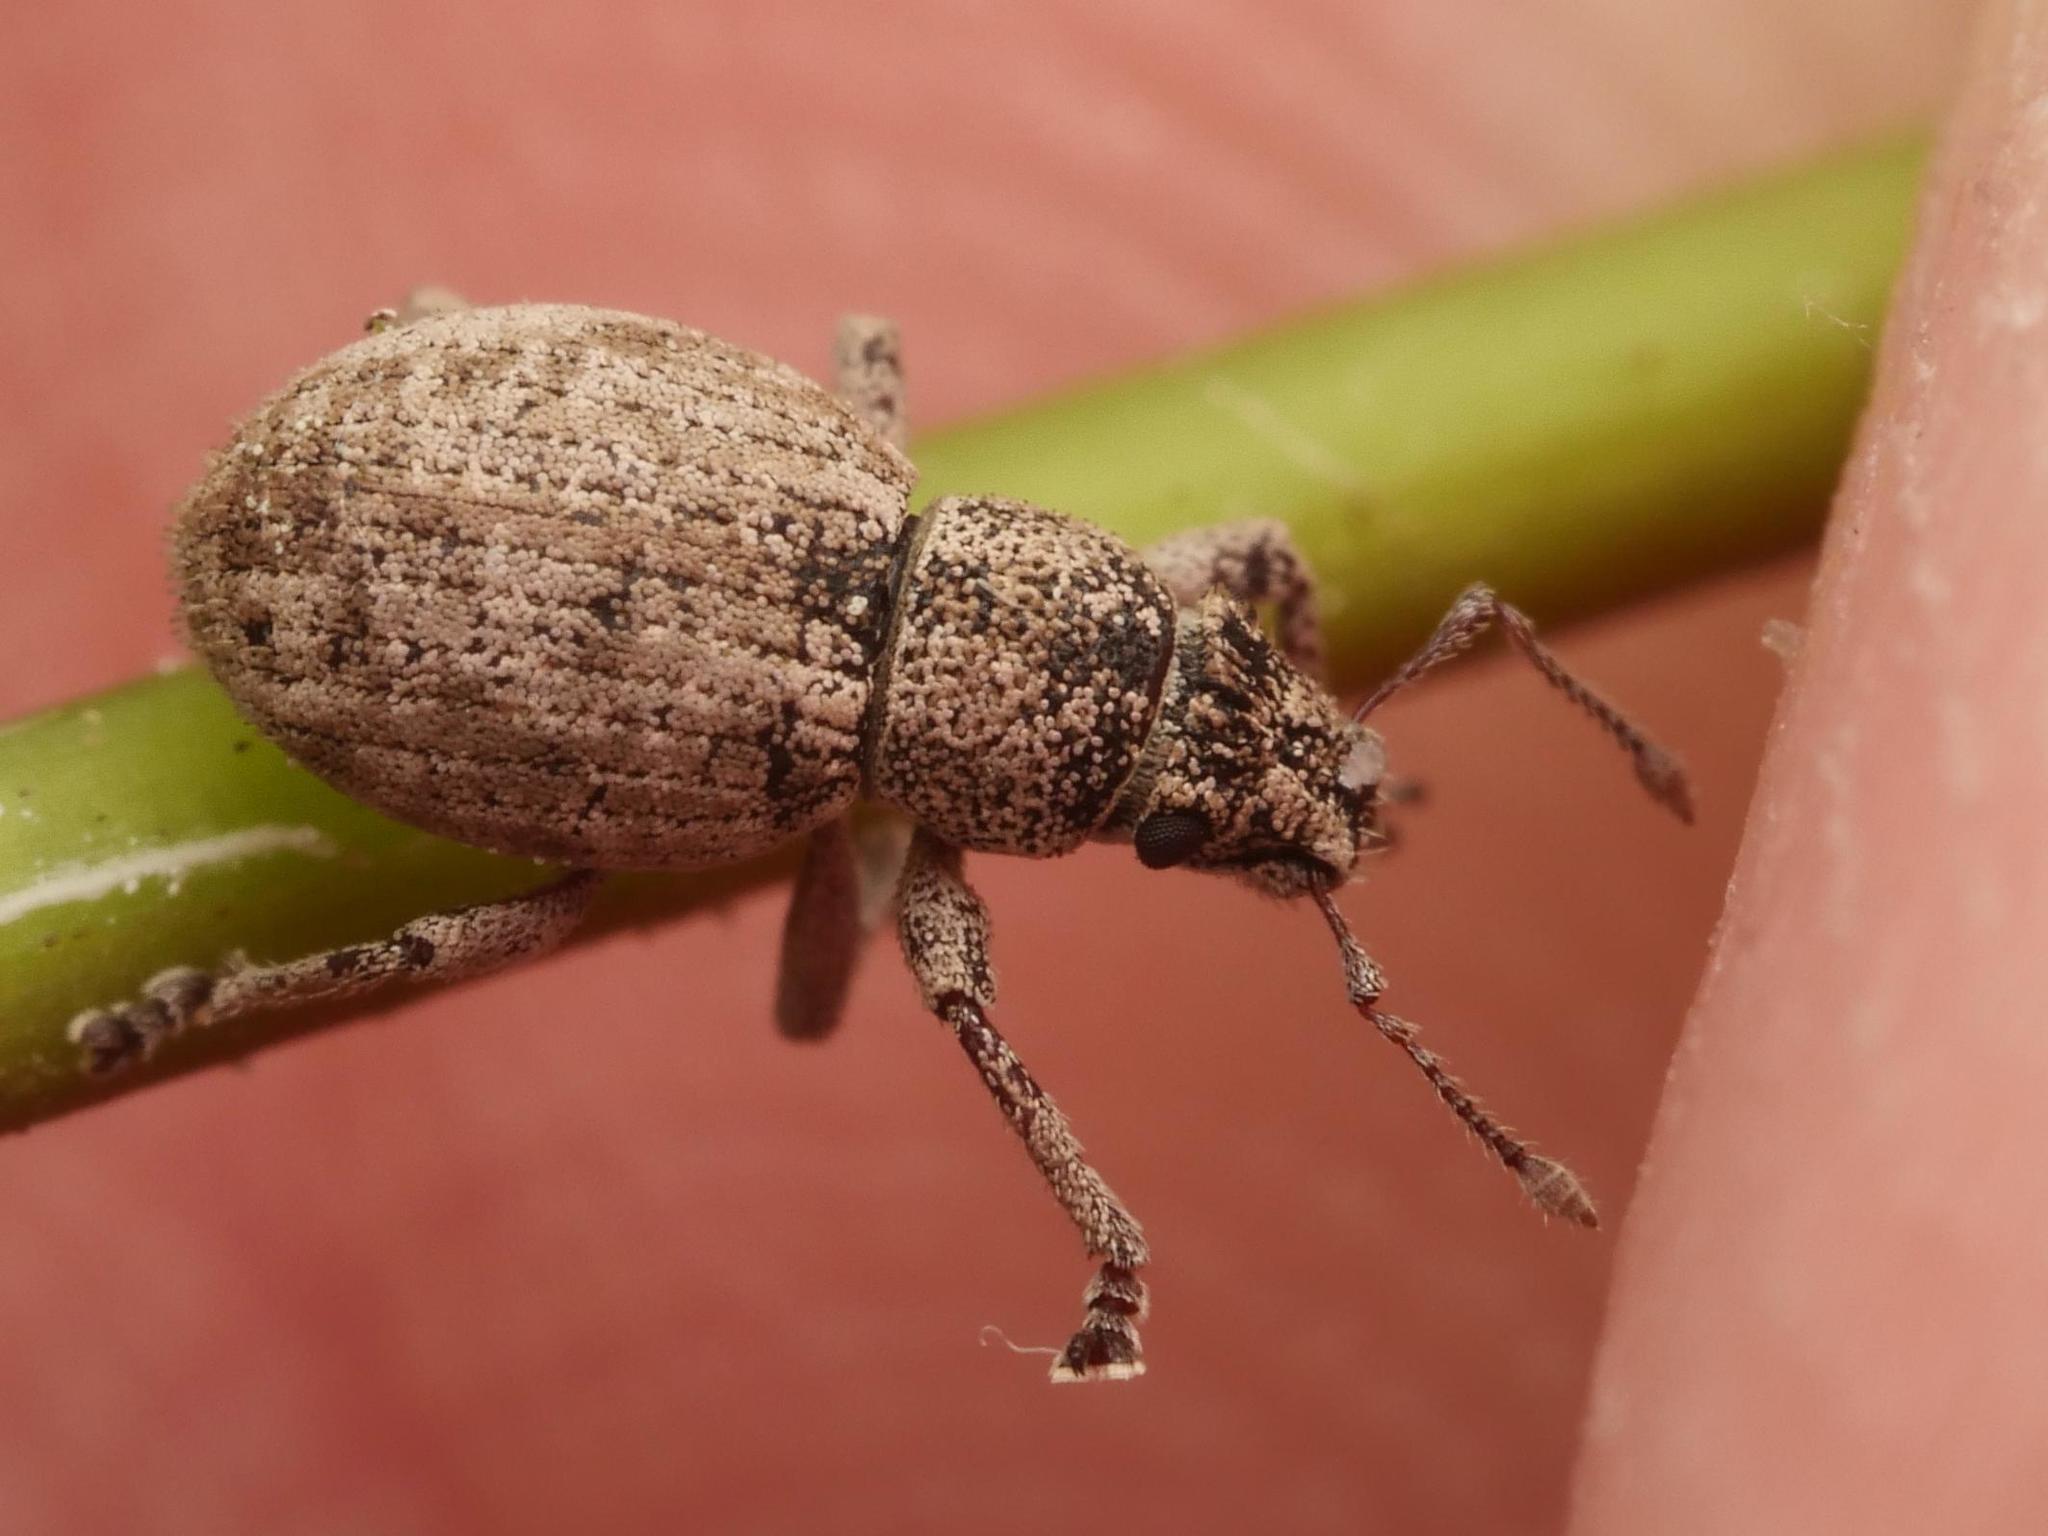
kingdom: Animalia
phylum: Arthropoda
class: Insecta
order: Coleoptera
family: Curculionidae
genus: Strophosoma
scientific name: Strophosoma capitatum
